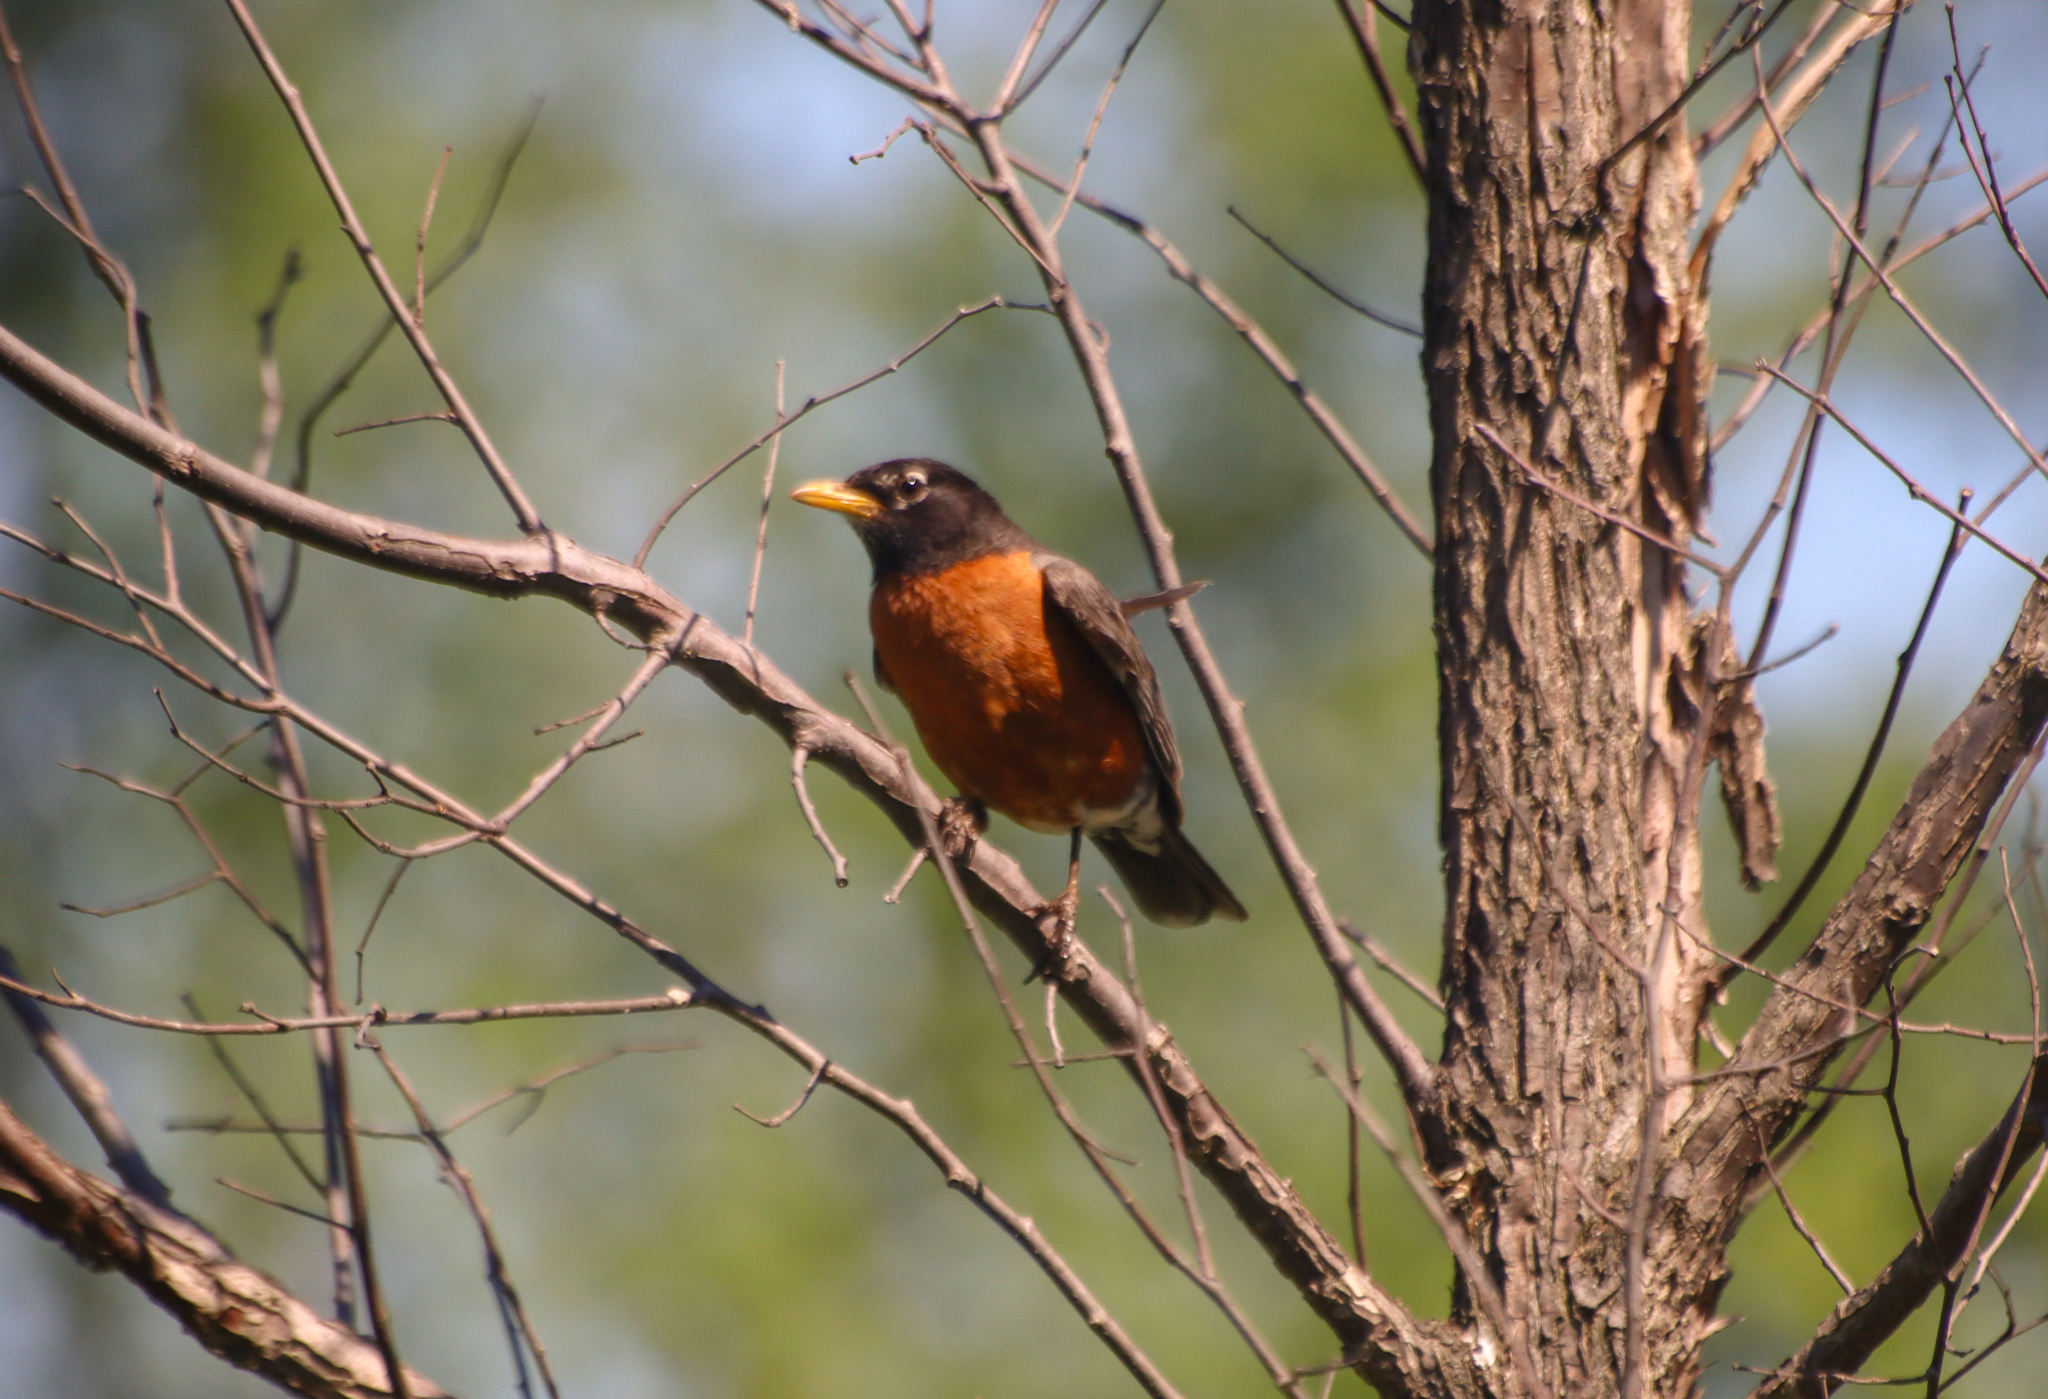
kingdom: Animalia
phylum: Chordata
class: Aves
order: Passeriformes
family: Turdidae
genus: Turdus
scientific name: Turdus migratorius
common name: American robin
